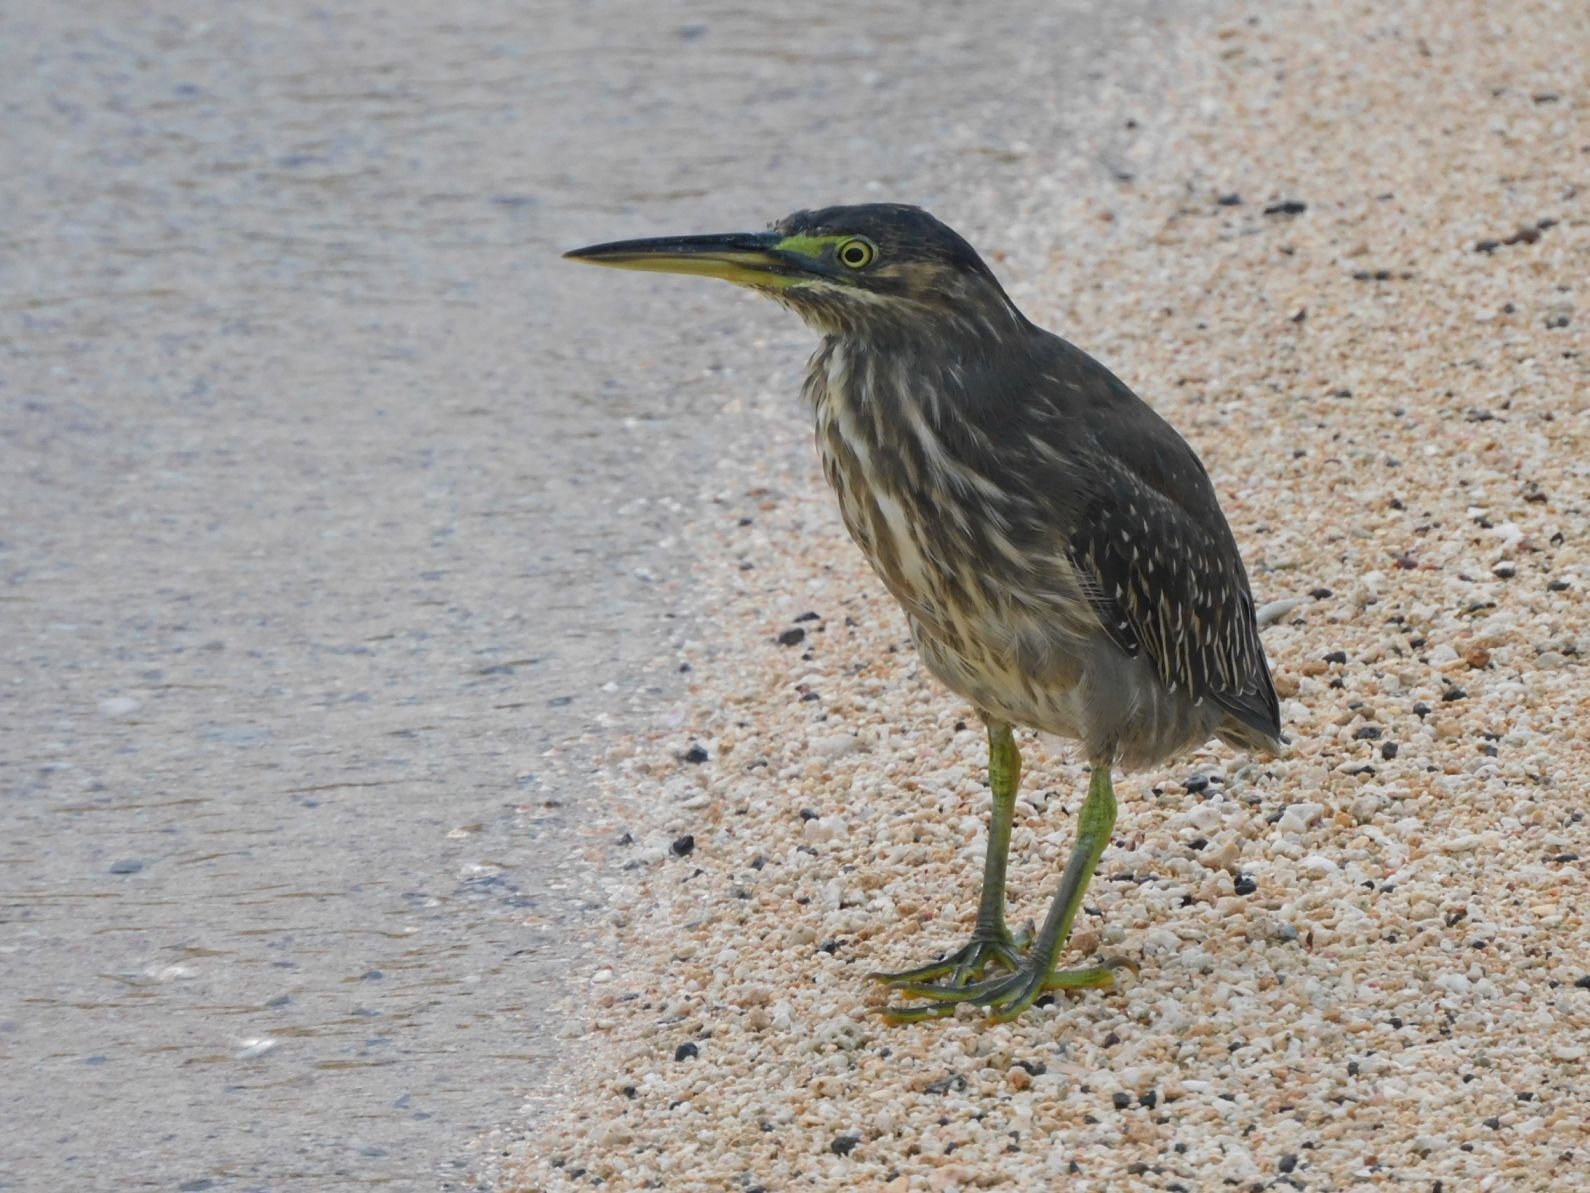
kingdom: Animalia
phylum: Chordata
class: Aves
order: Pelecaniformes
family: Ardeidae
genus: Butorides
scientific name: Butorides striata
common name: Striated heron
